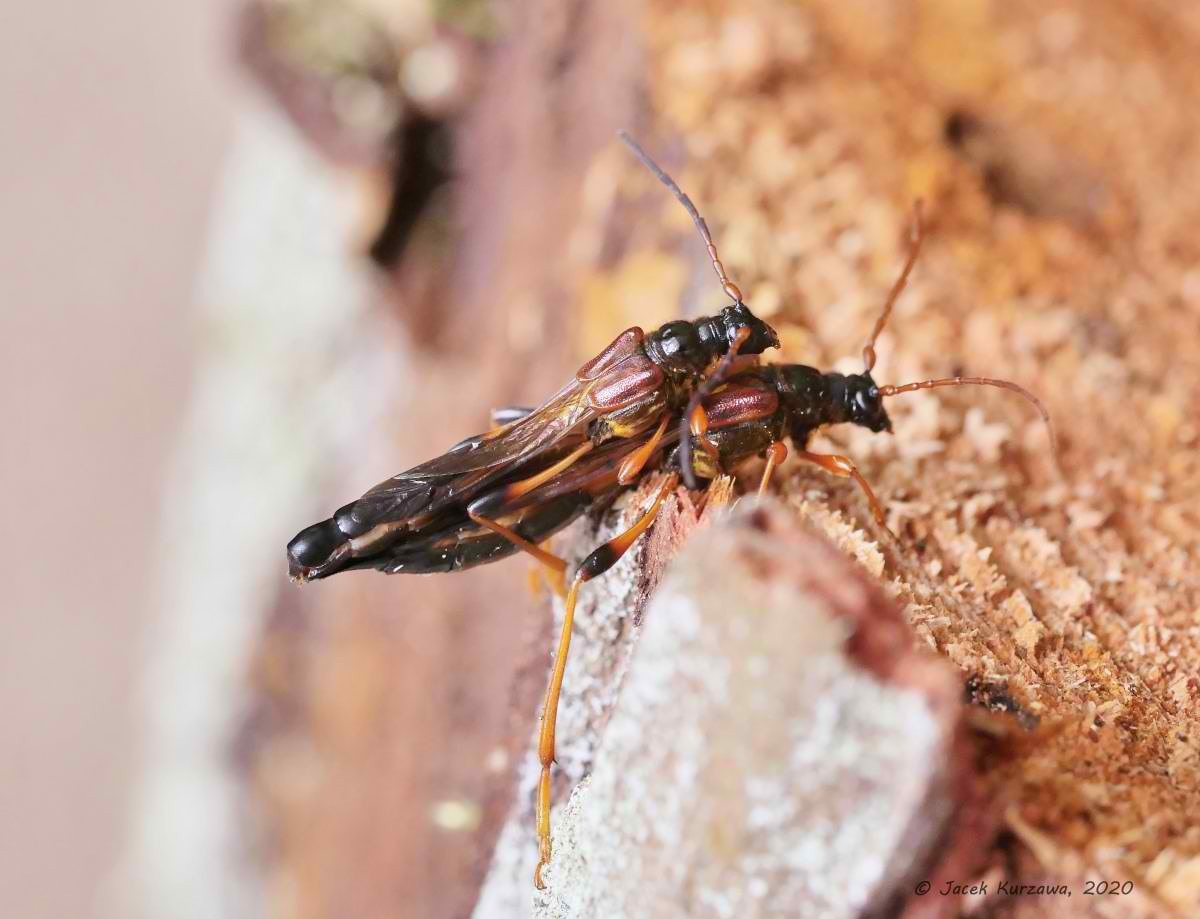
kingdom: Animalia
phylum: Arthropoda
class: Insecta
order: Coleoptera
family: Cerambycidae
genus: Necydalis
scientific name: Necydalis major
